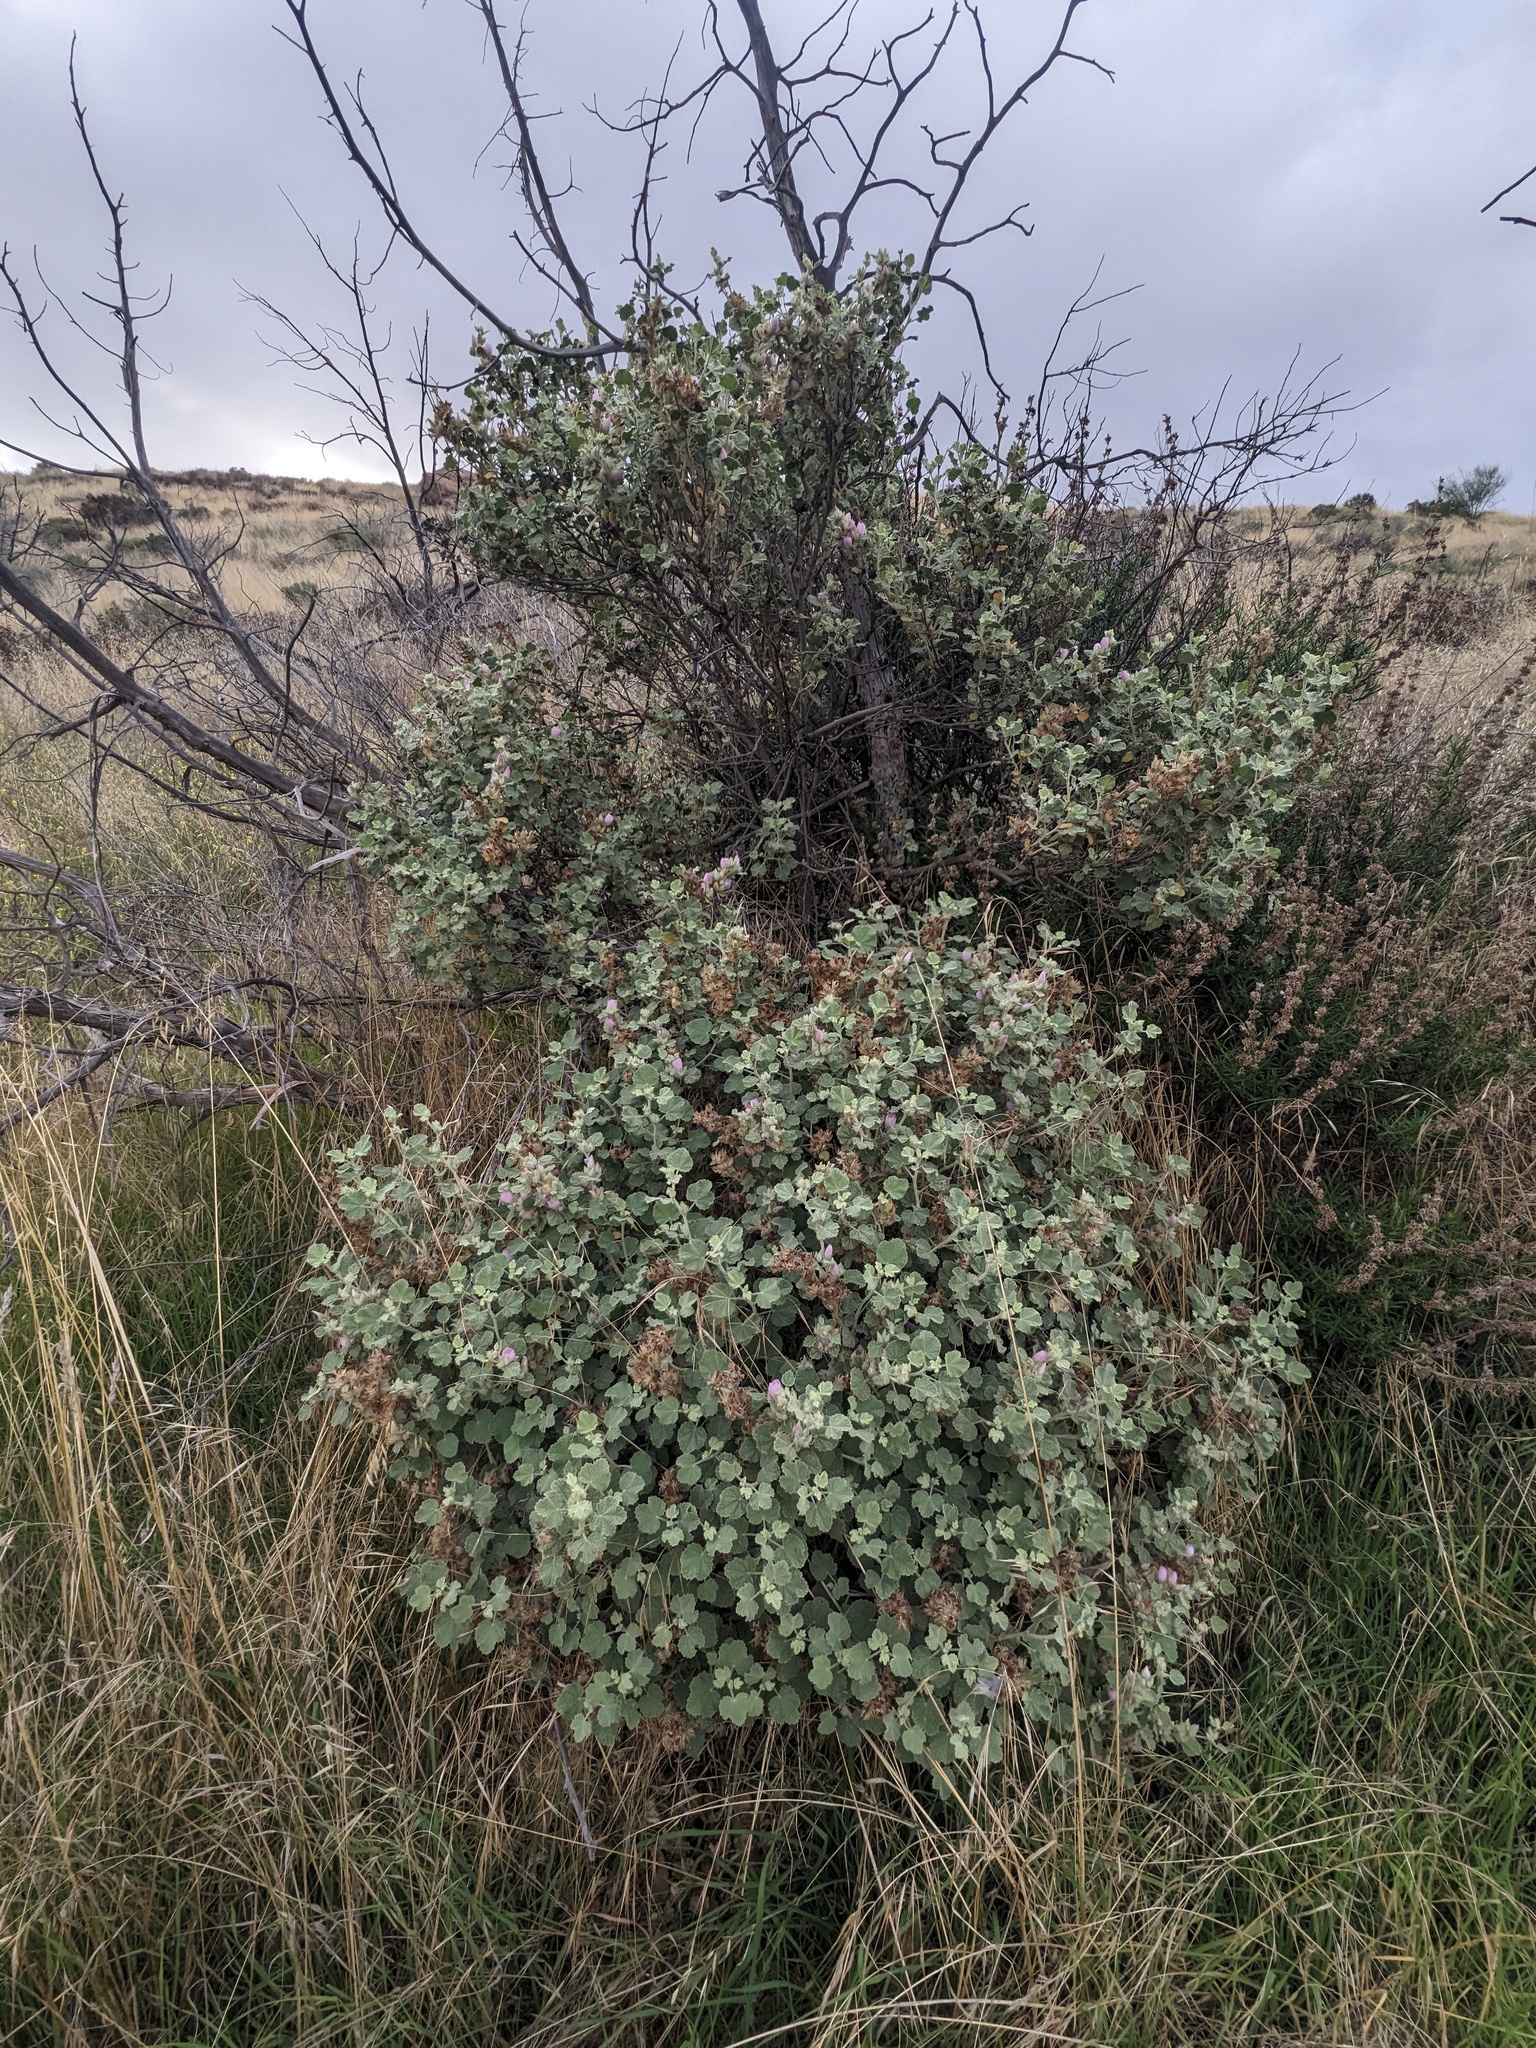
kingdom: Plantae
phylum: Tracheophyta
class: Magnoliopsida
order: Malvales
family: Malvaceae
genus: Malacothamnus
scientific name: Malacothamnus marrubioides
